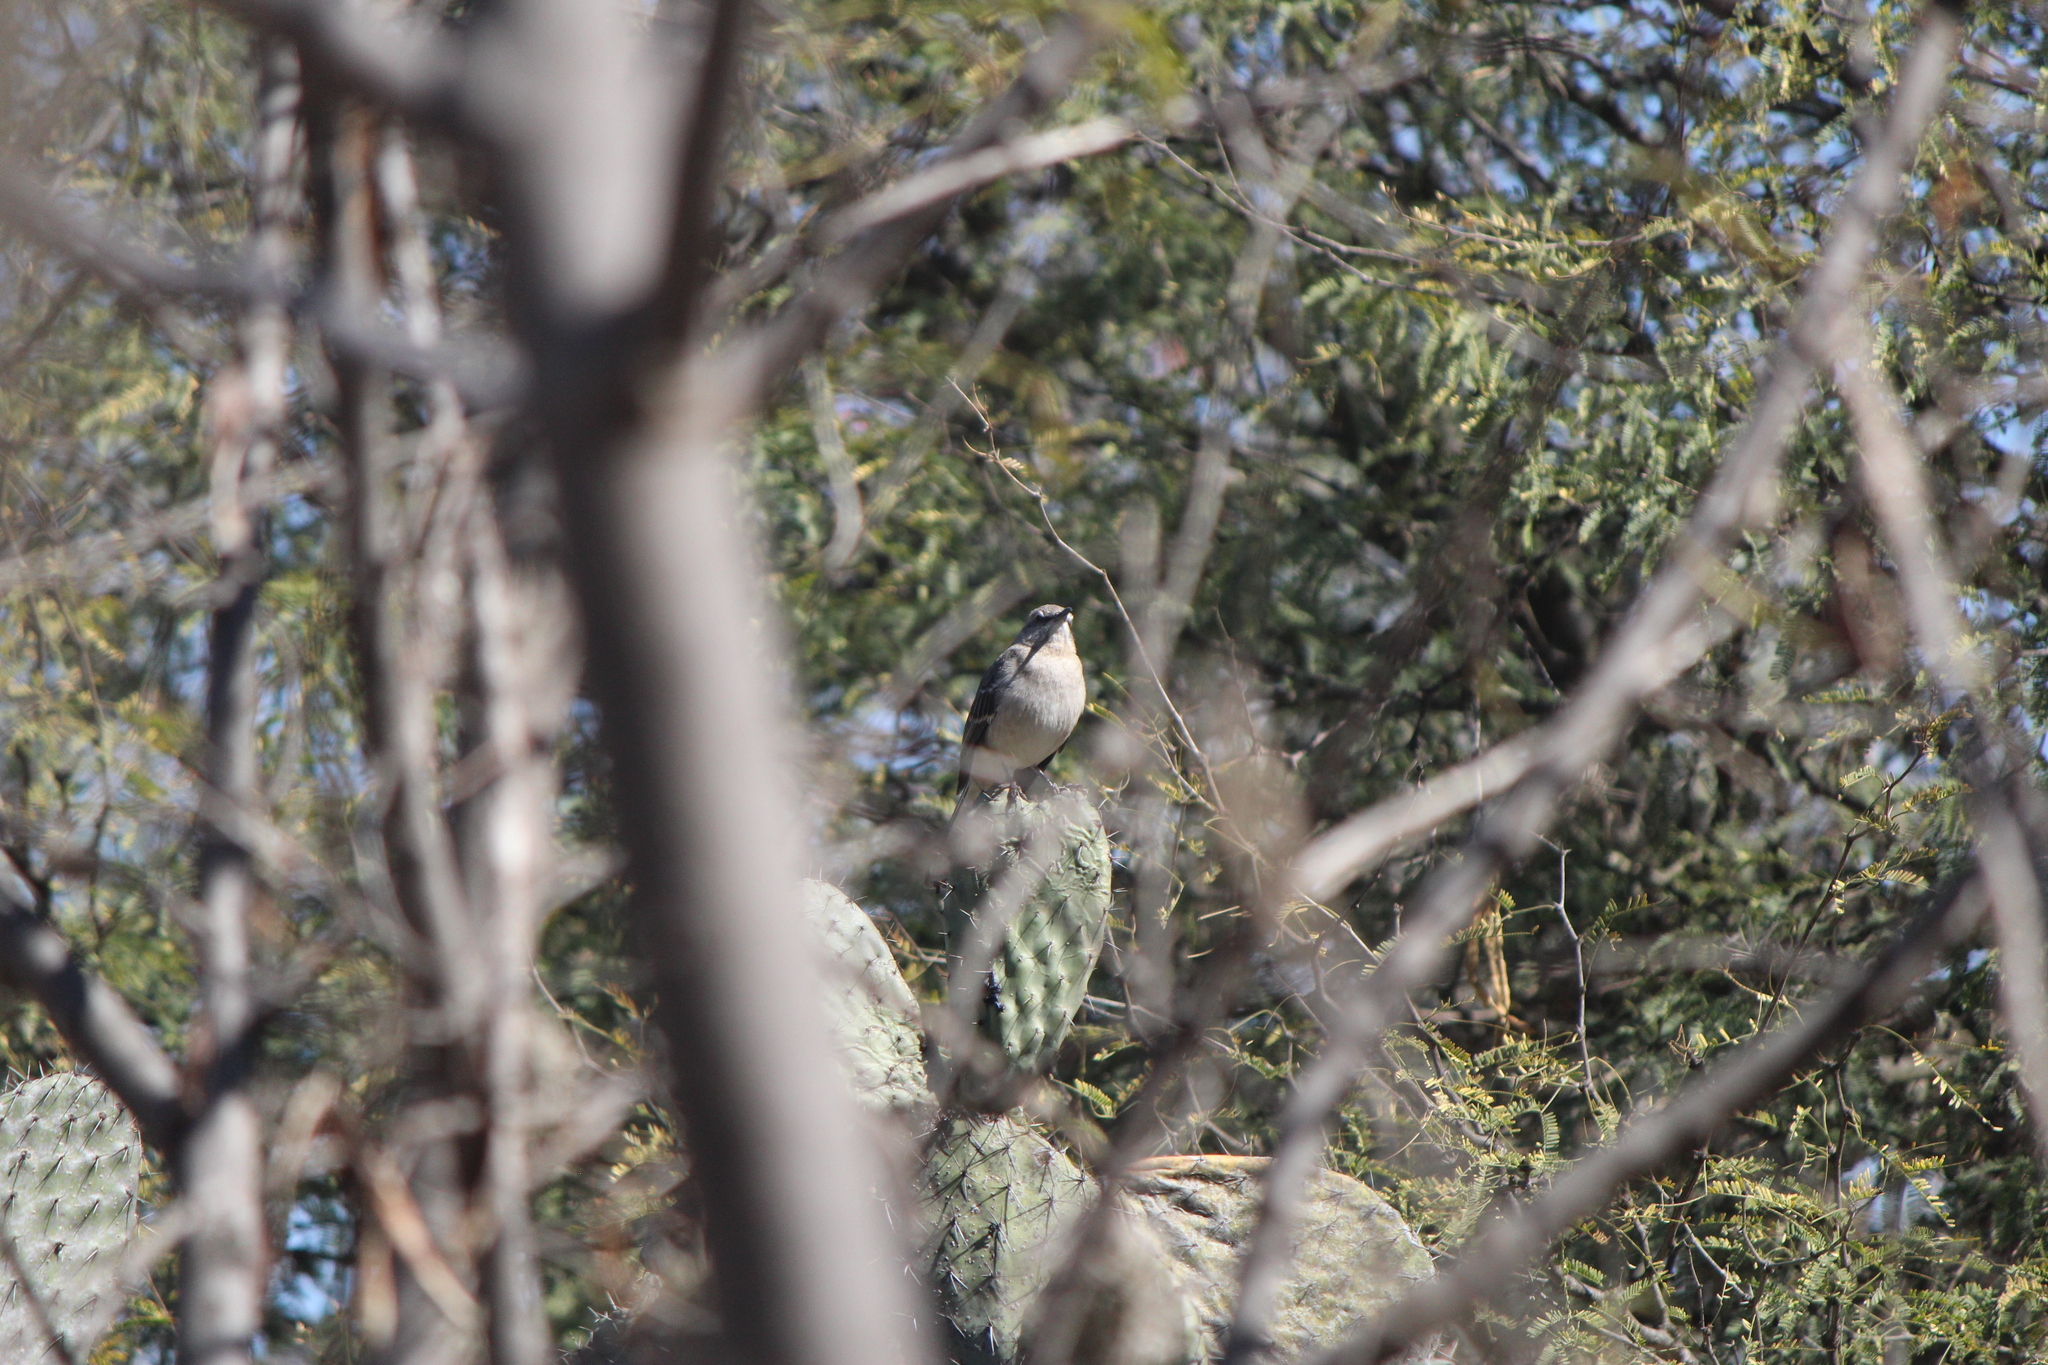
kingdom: Animalia
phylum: Chordata
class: Aves
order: Passeriformes
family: Mimidae
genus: Mimus
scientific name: Mimus polyglottos
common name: Northern mockingbird
